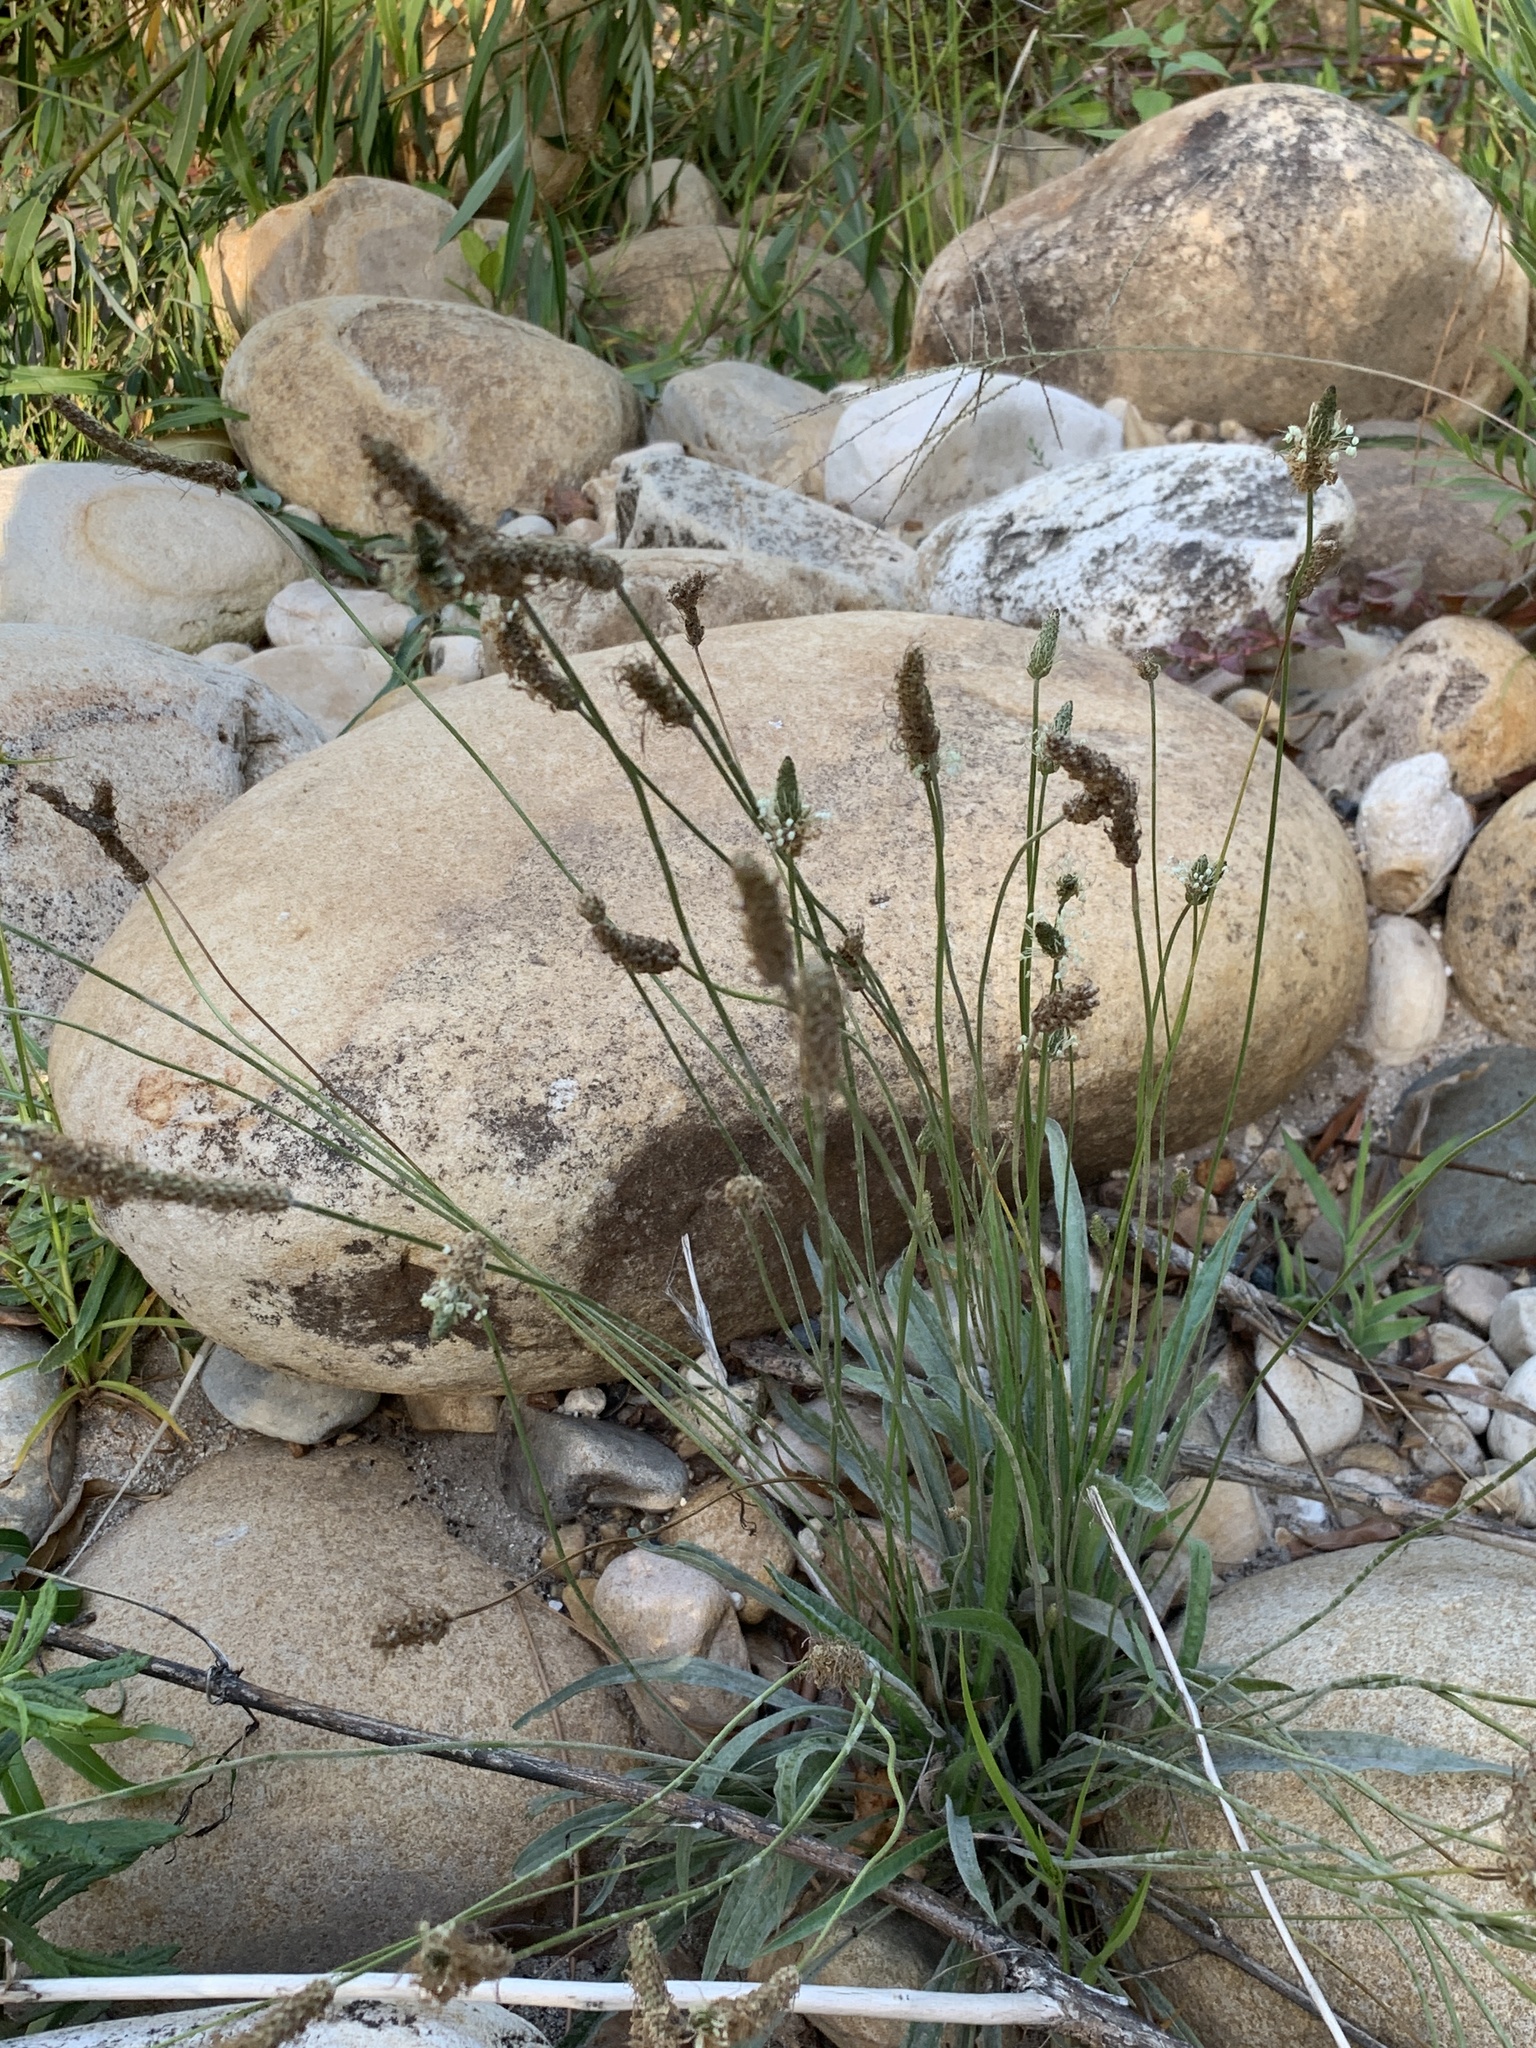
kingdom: Plantae
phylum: Tracheophyta
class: Magnoliopsida
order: Lamiales
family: Plantaginaceae
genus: Plantago
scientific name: Plantago lanceolata
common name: Ribwort plantain
